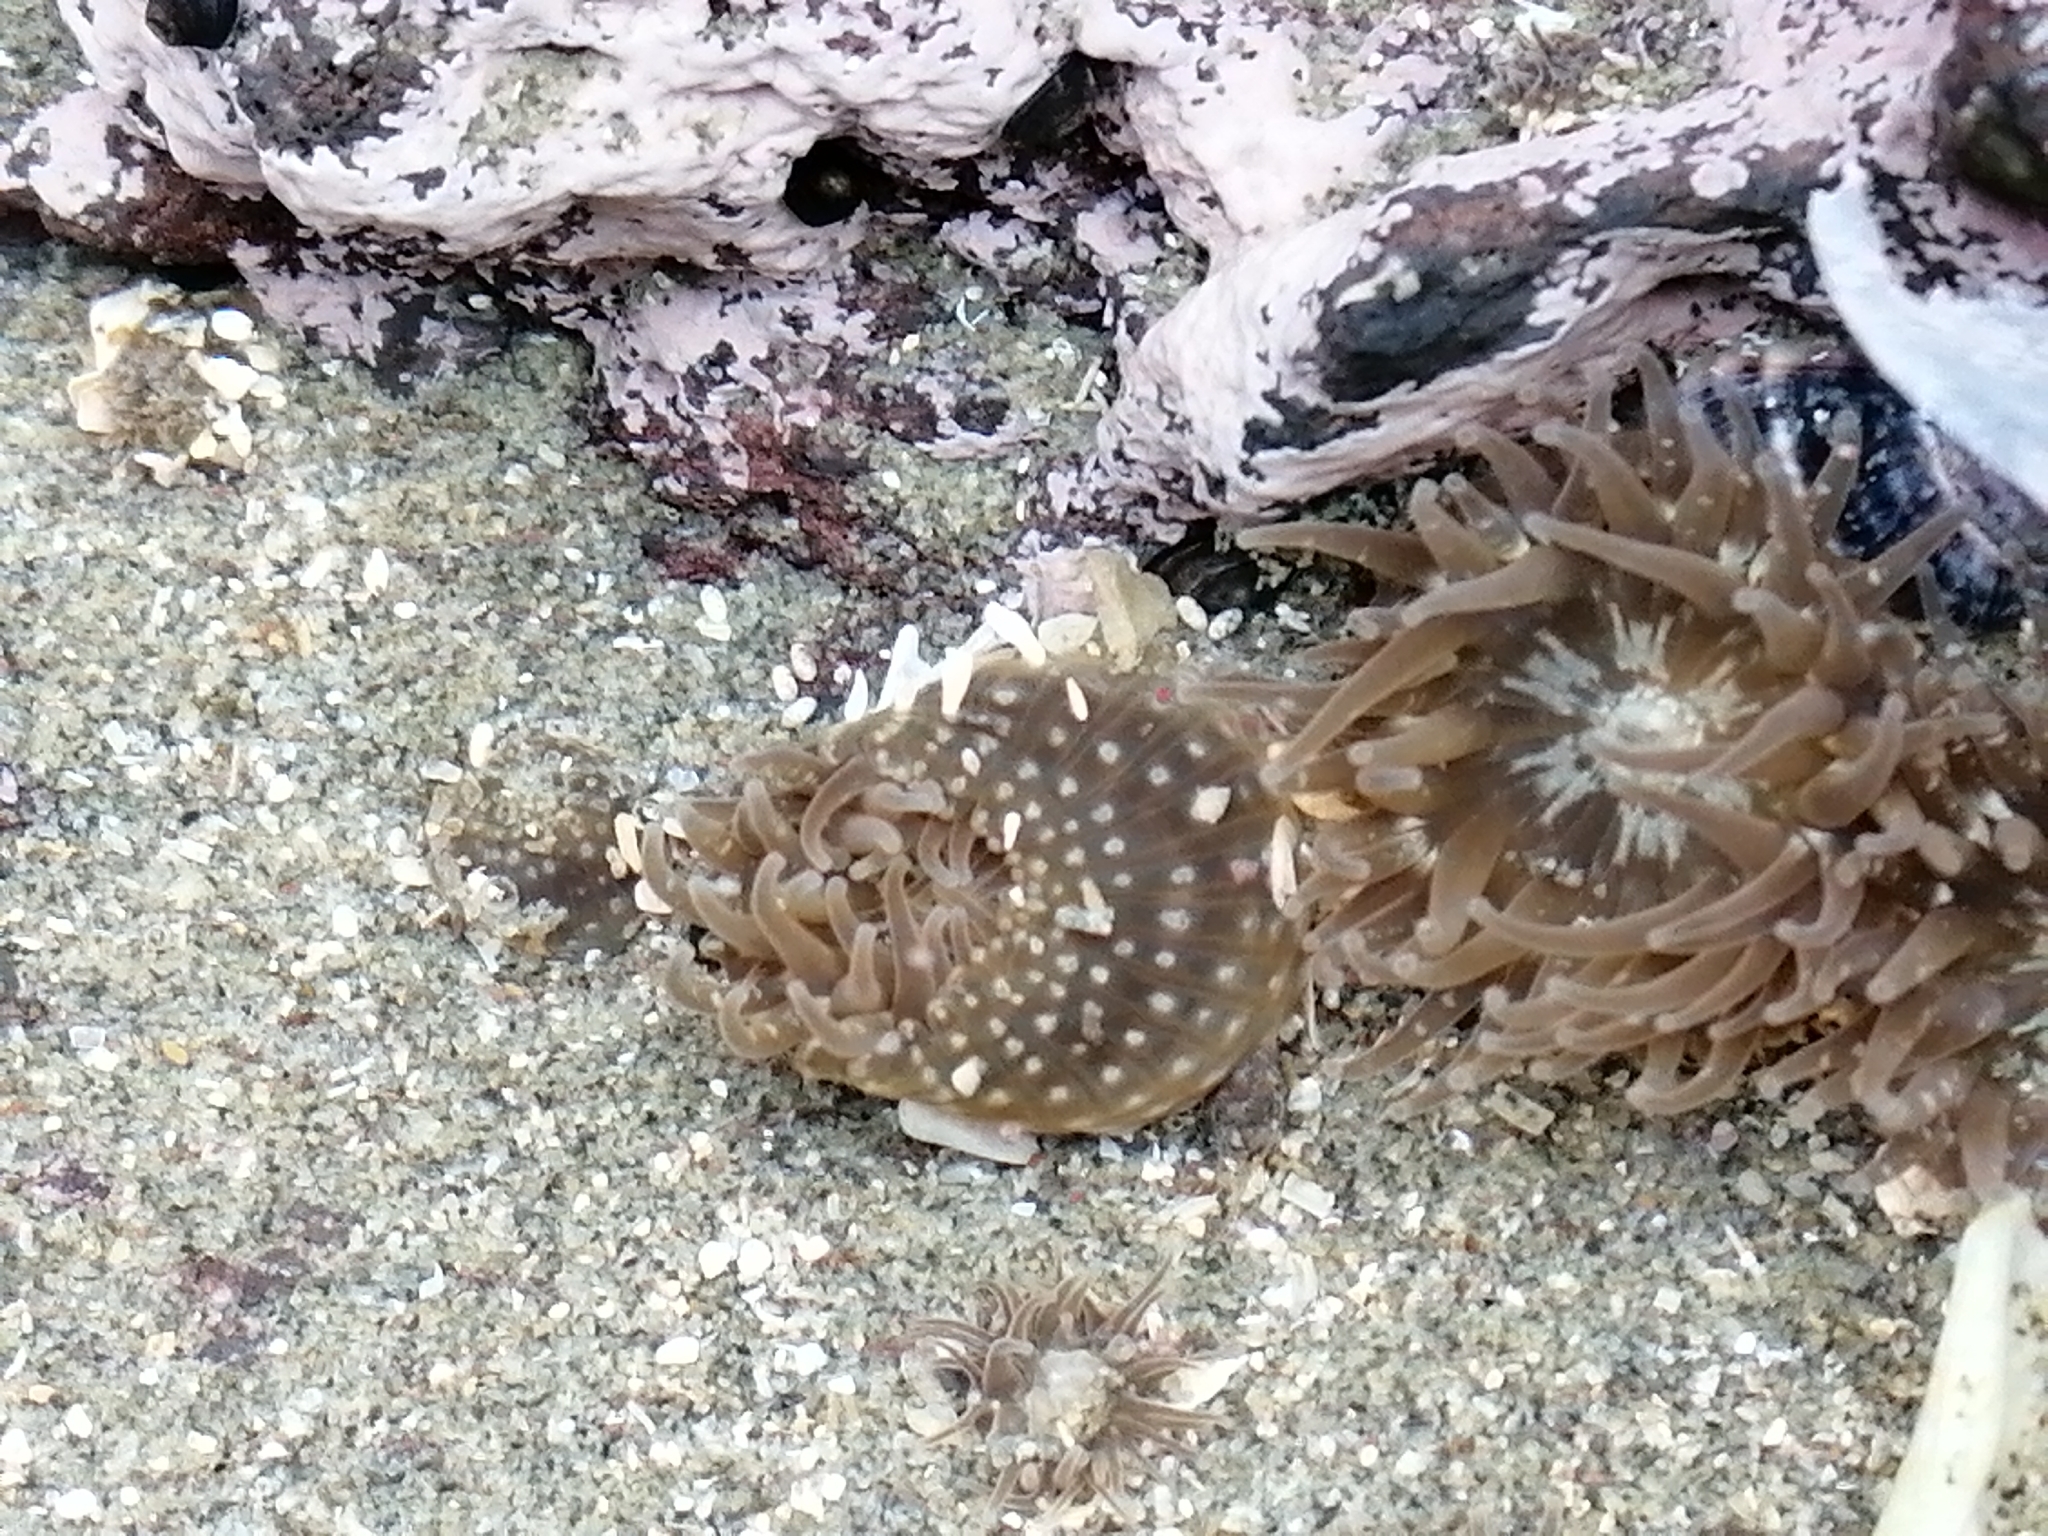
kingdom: Animalia
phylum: Cnidaria
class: Anthozoa
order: Actiniaria
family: Actiniidae
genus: Anthopleura
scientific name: Anthopleura hermaphroditica
